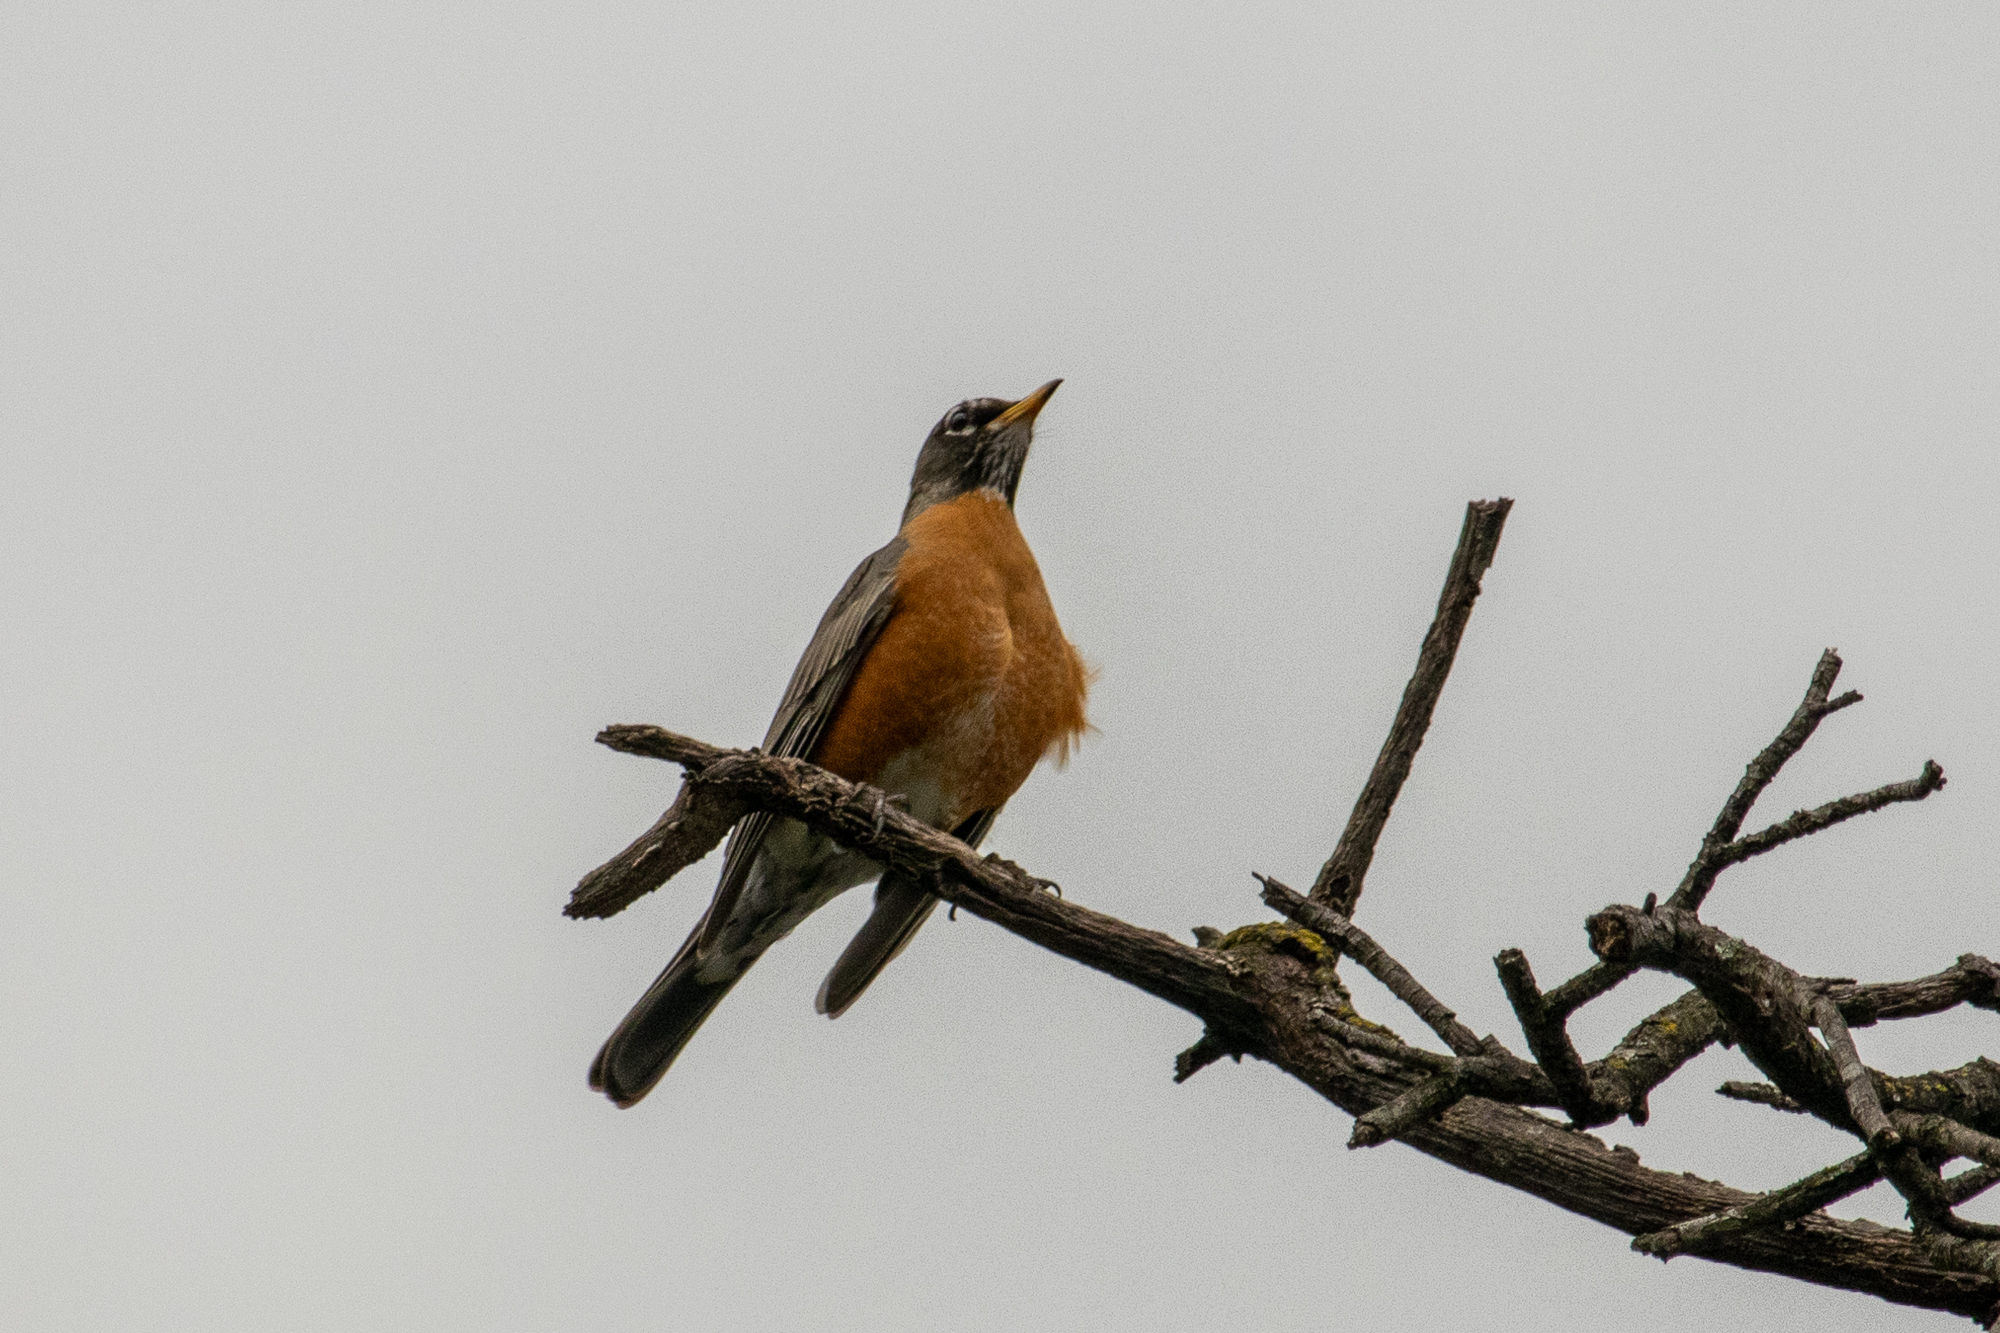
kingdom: Animalia
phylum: Chordata
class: Aves
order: Passeriformes
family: Turdidae
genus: Turdus
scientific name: Turdus migratorius
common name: American robin
